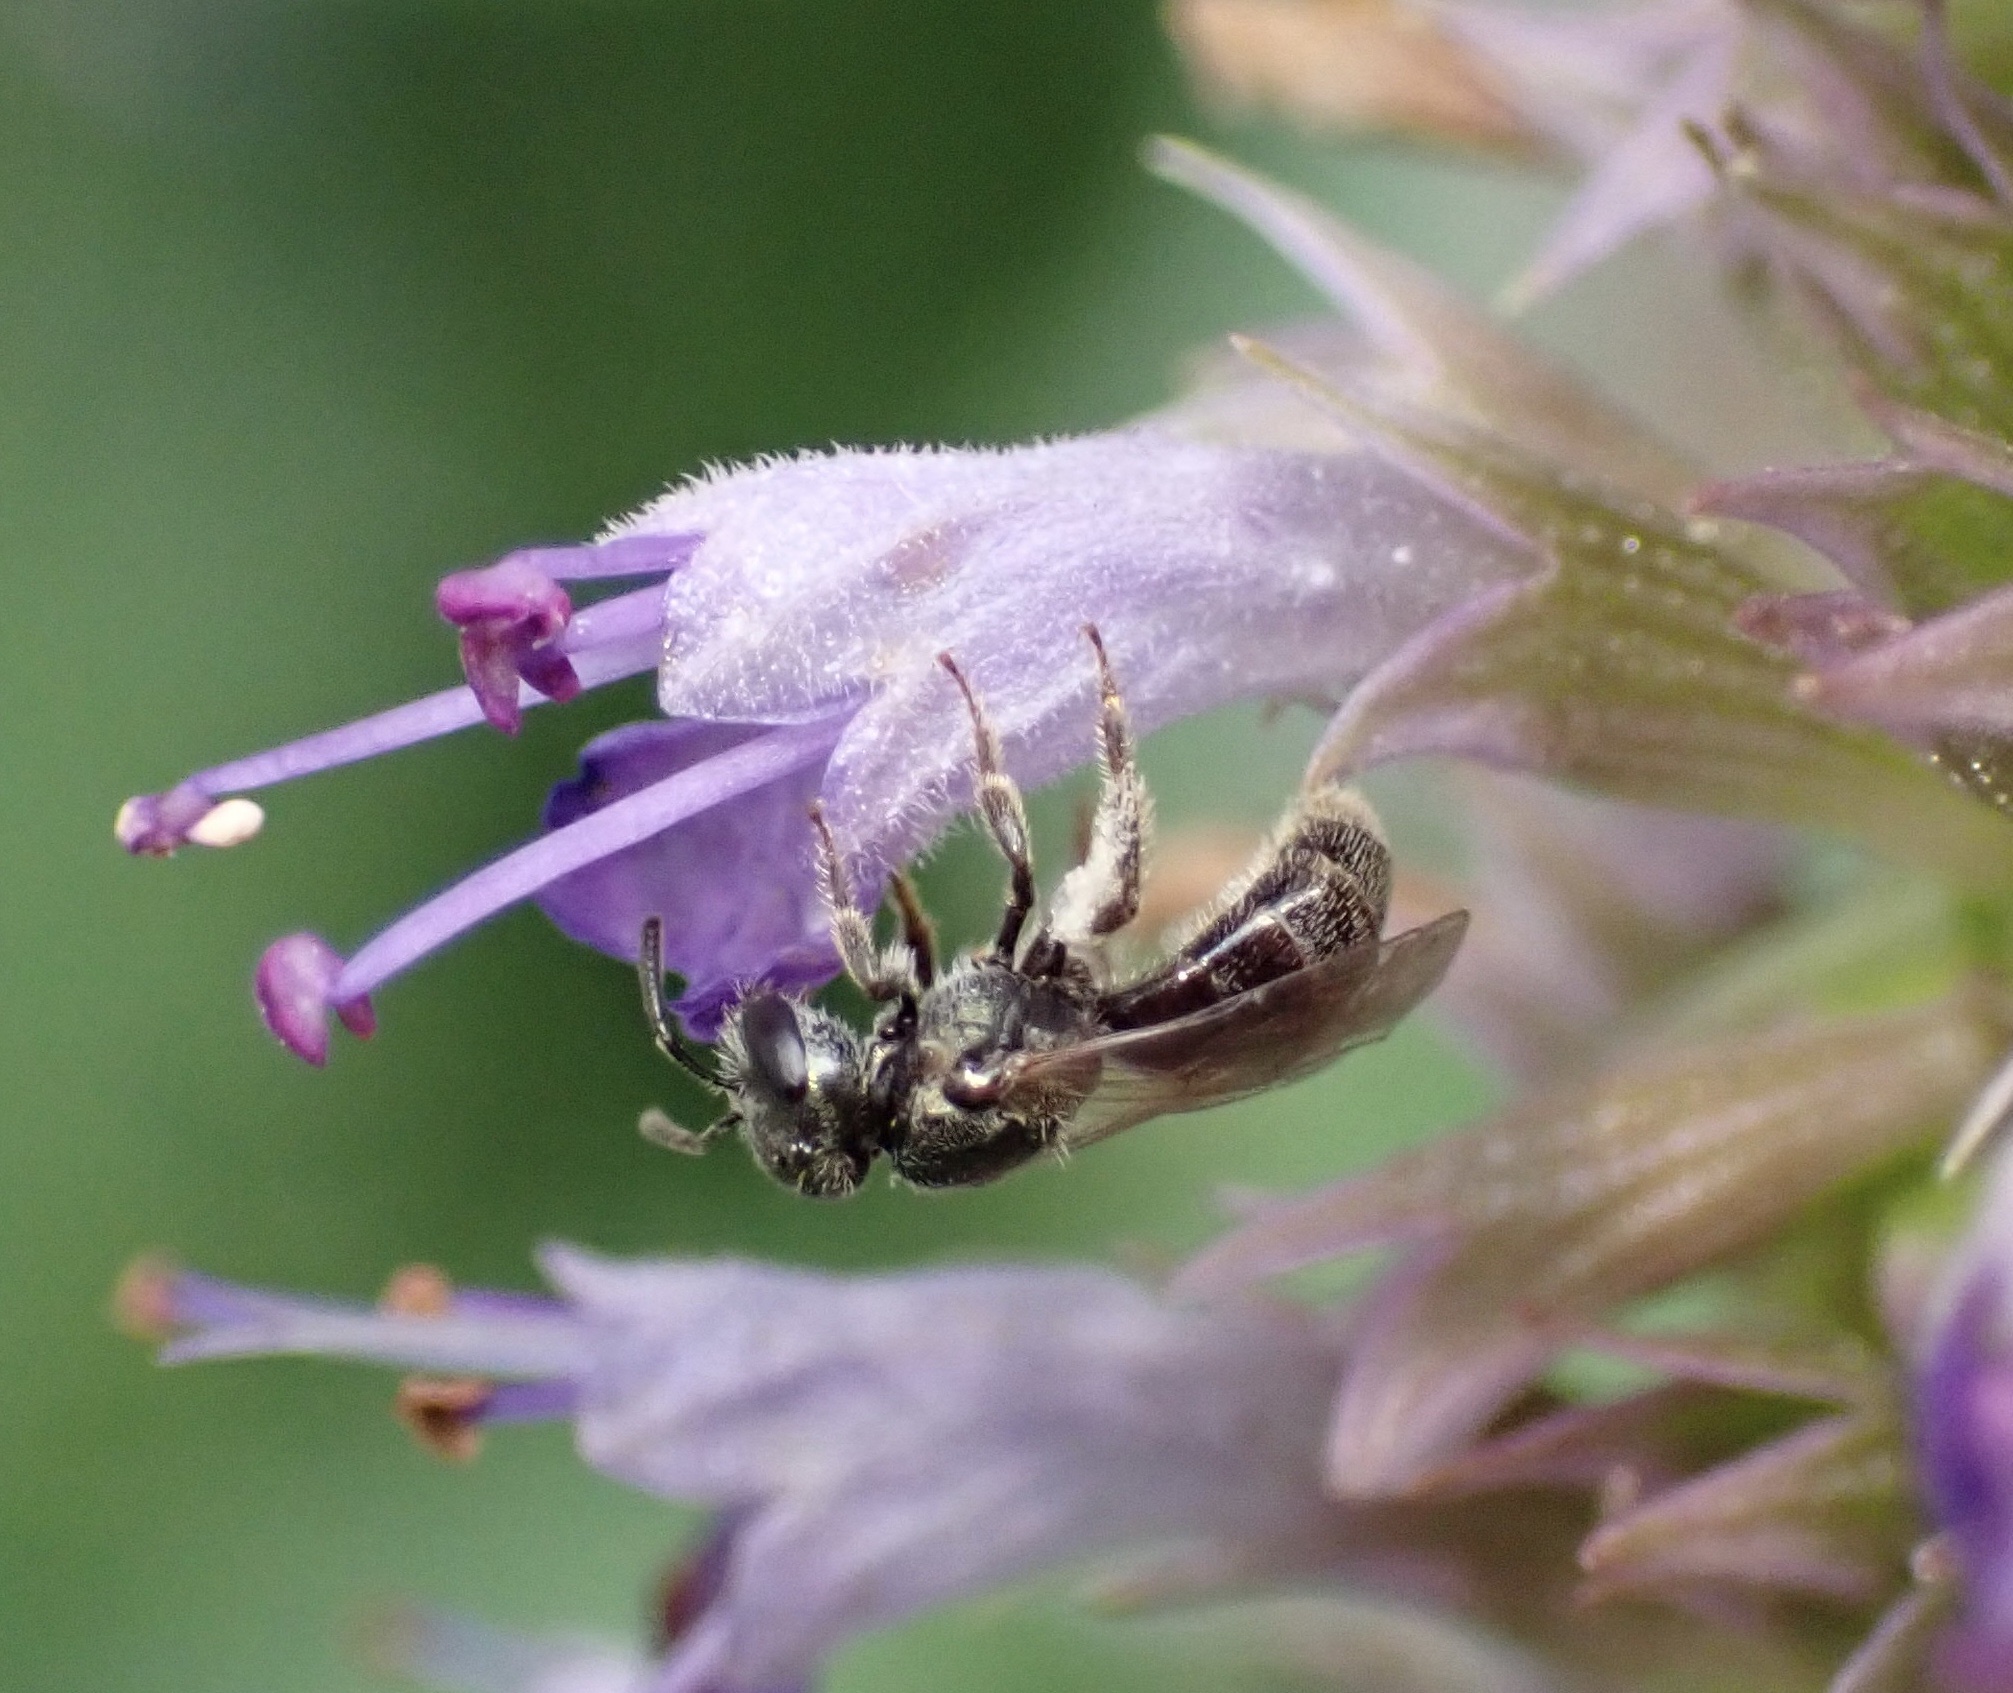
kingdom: Animalia
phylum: Arthropoda
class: Insecta
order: Hymenoptera
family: Halictidae
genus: Lasioglossum
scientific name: Lasioglossum imitatum
